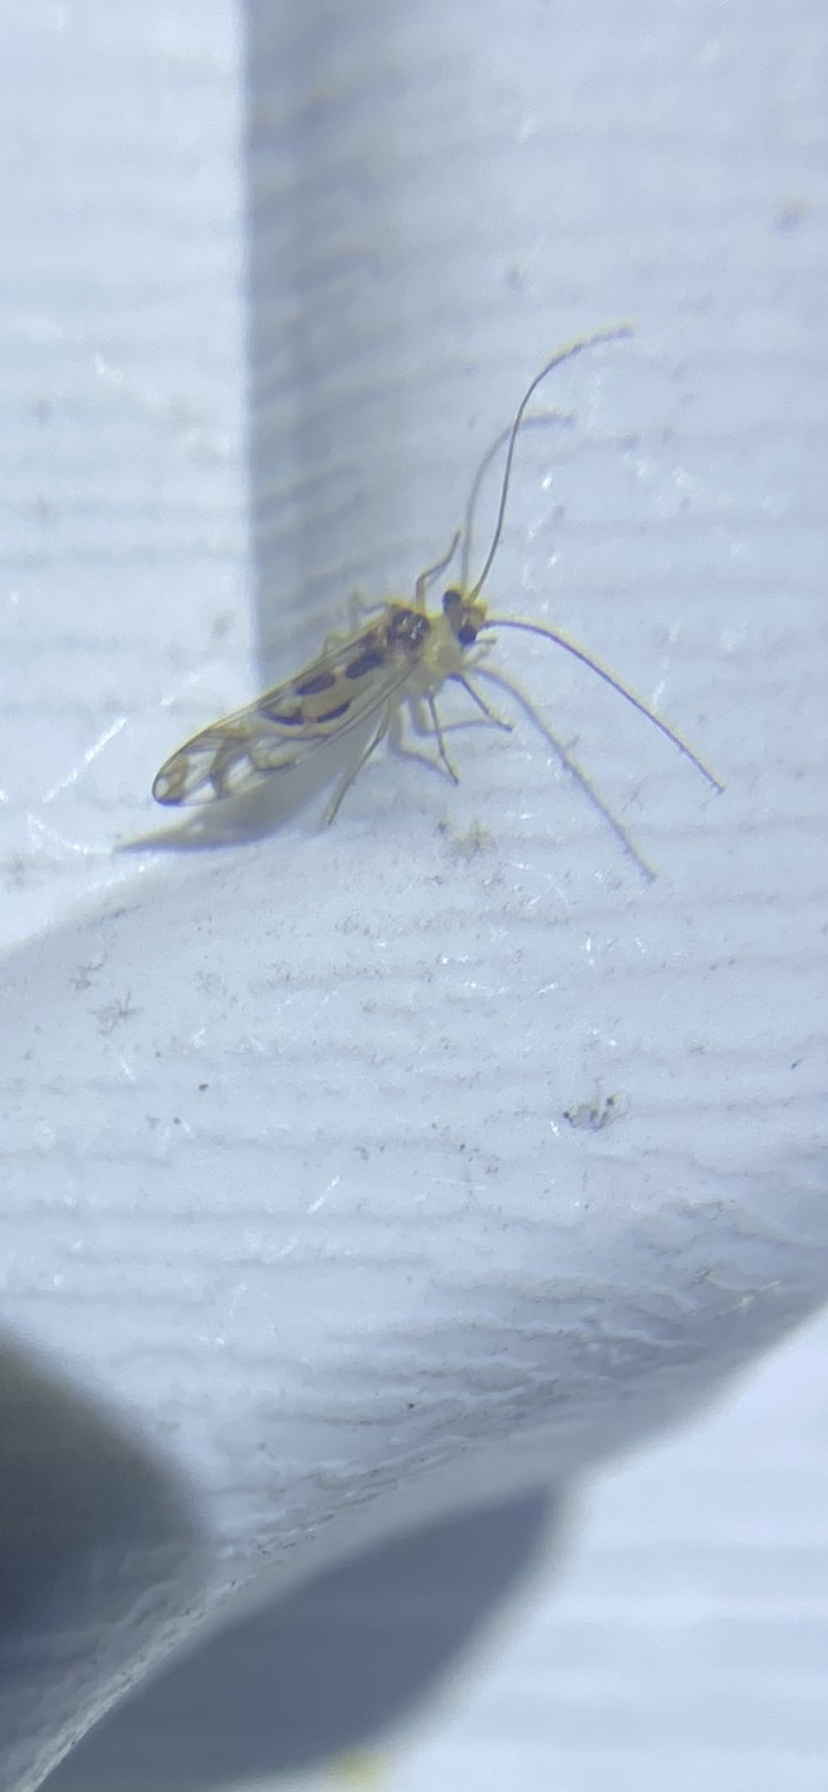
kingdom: Animalia
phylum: Arthropoda
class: Insecta
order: Psocodea
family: Stenopsocidae
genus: Graphopsocus
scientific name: Graphopsocus cruciatus
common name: Lizard bark louse
